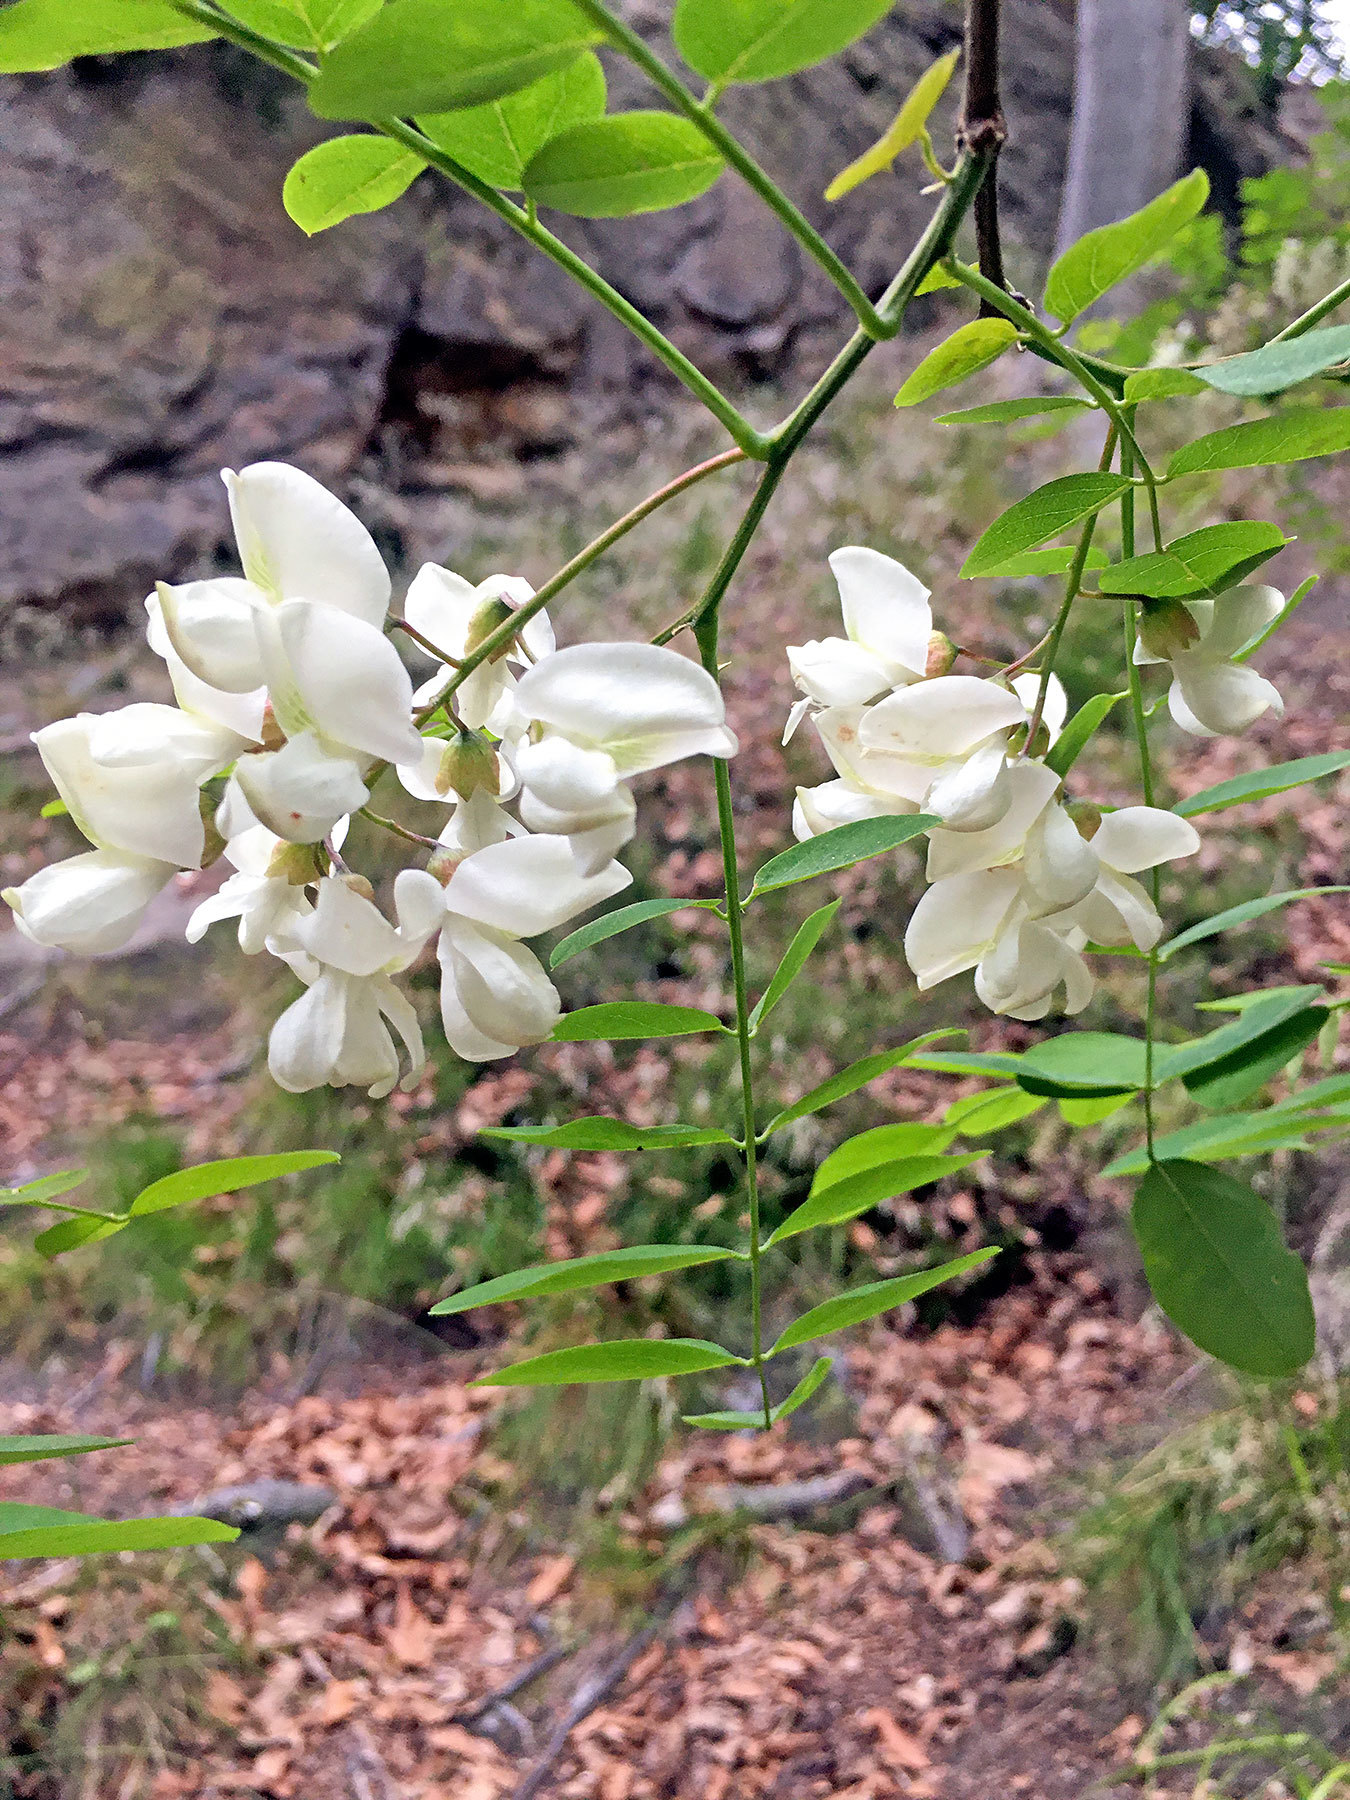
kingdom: Plantae
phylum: Tracheophyta
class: Magnoliopsida
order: Fabales
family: Fabaceae
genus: Robinia
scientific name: Robinia pseudoacacia
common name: Black locust
